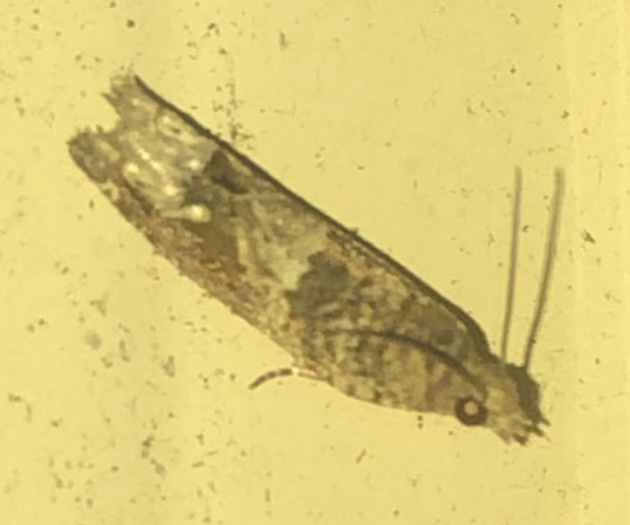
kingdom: Animalia
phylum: Arthropoda
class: Insecta
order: Lepidoptera
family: Tortricidae
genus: Crocidosema
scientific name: Crocidosema plebejana
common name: Southern bell
